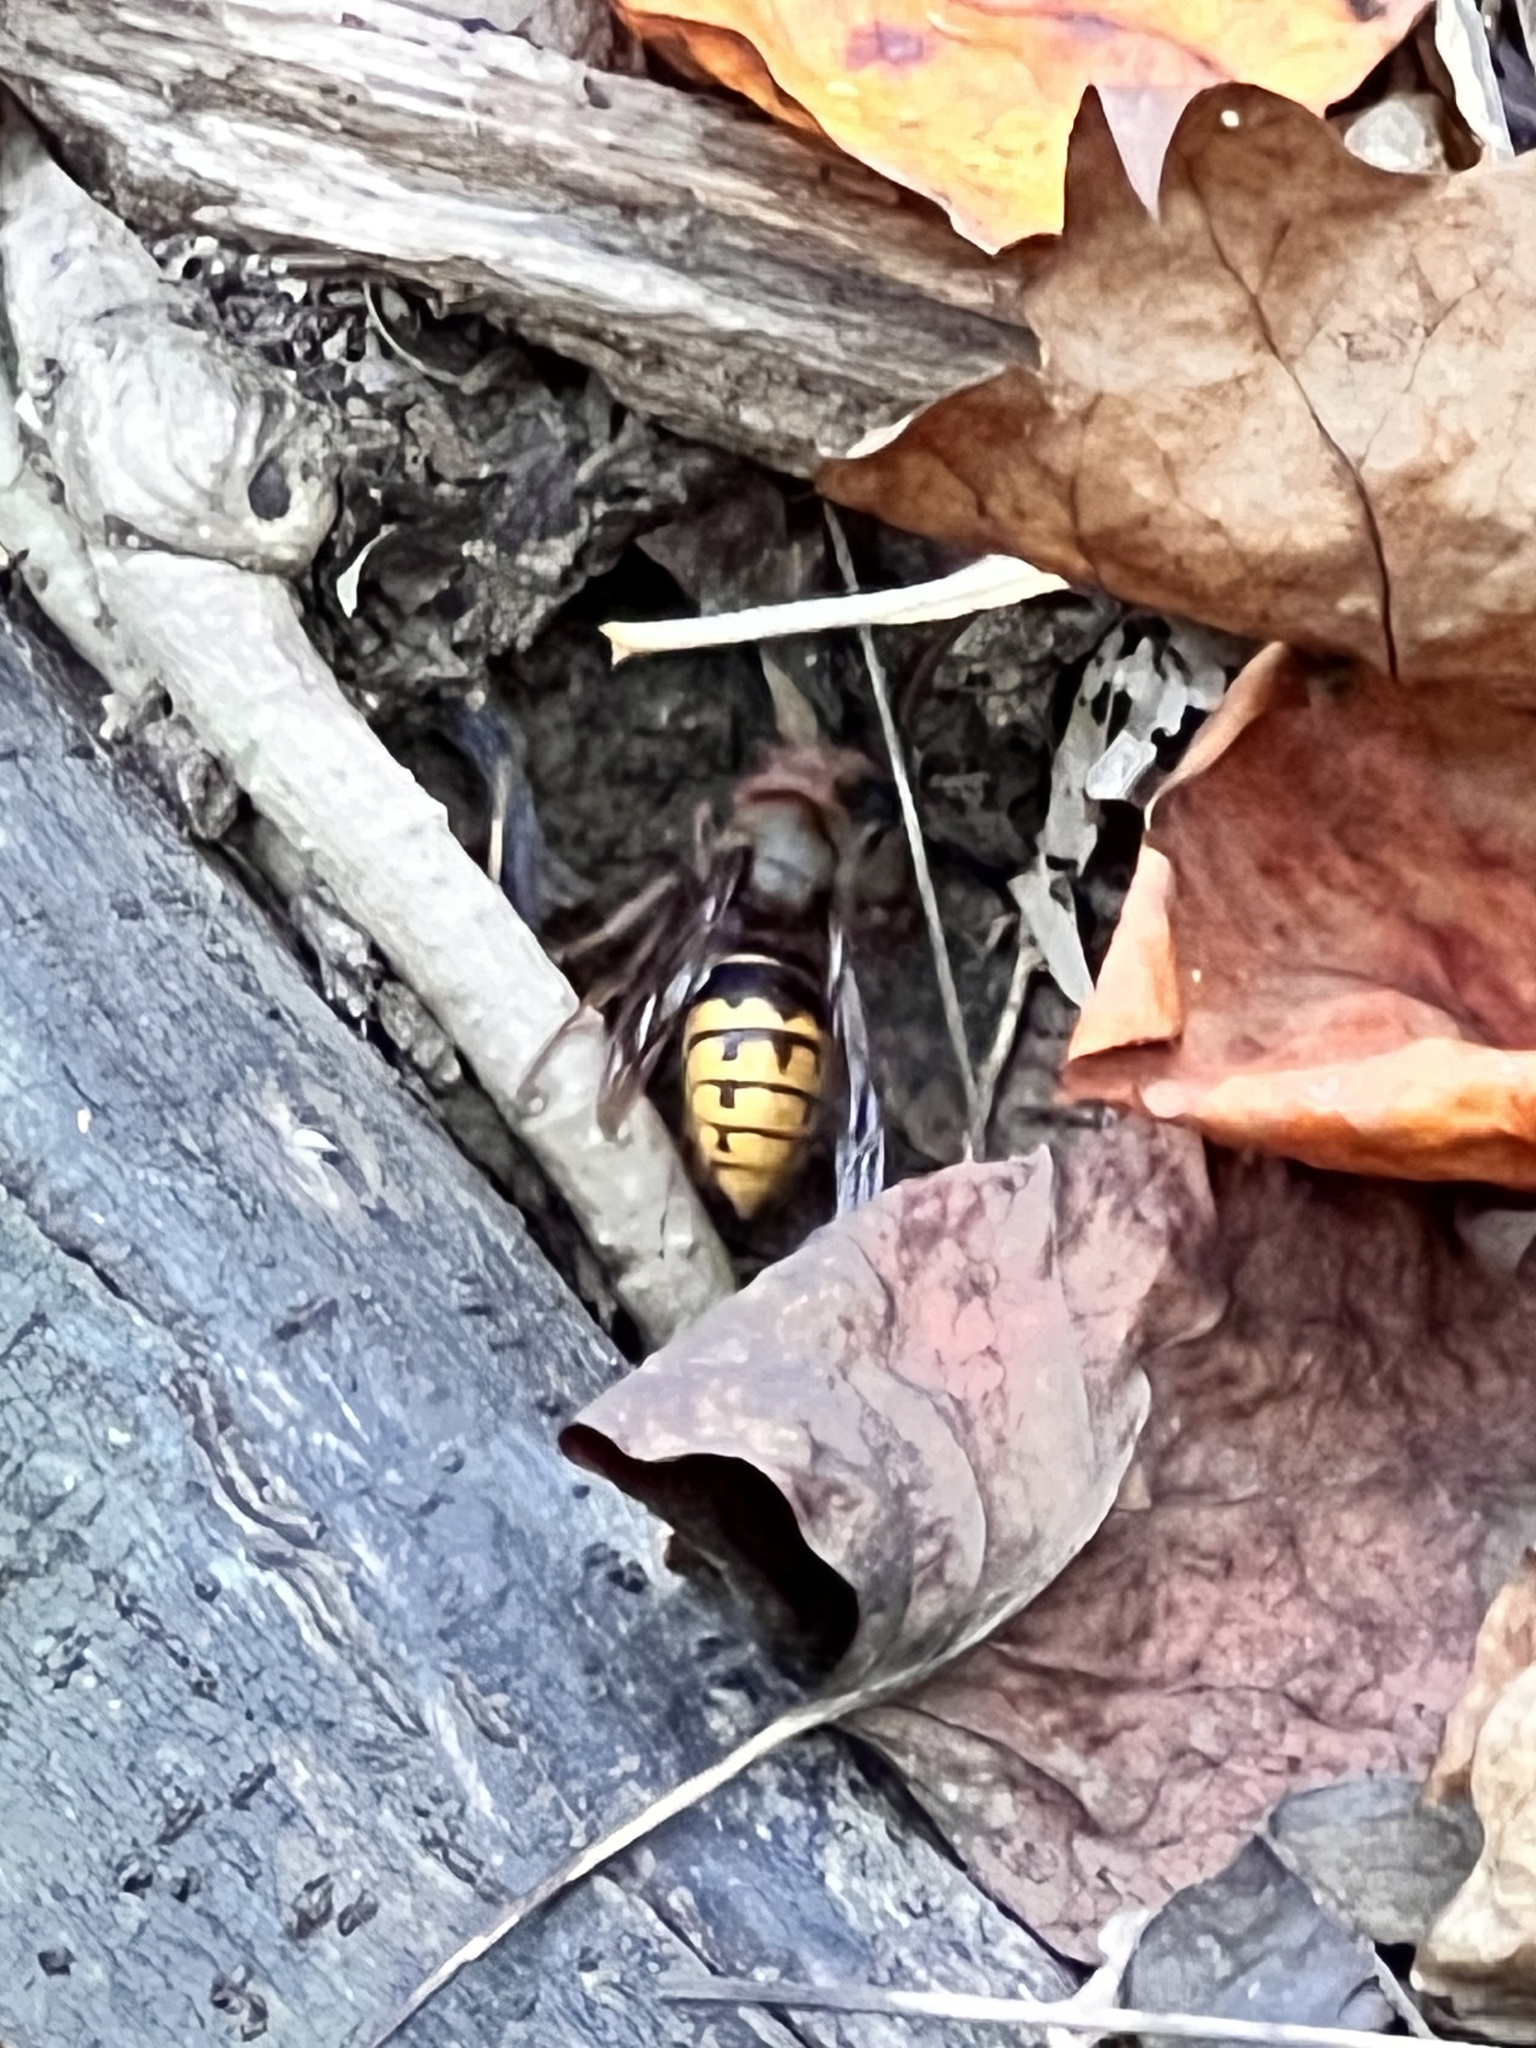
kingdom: Animalia
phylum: Arthropoda
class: Insecta
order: Hymenoptera
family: Vespidae
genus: Vespa
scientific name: Vespa crabro
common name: Hornet
